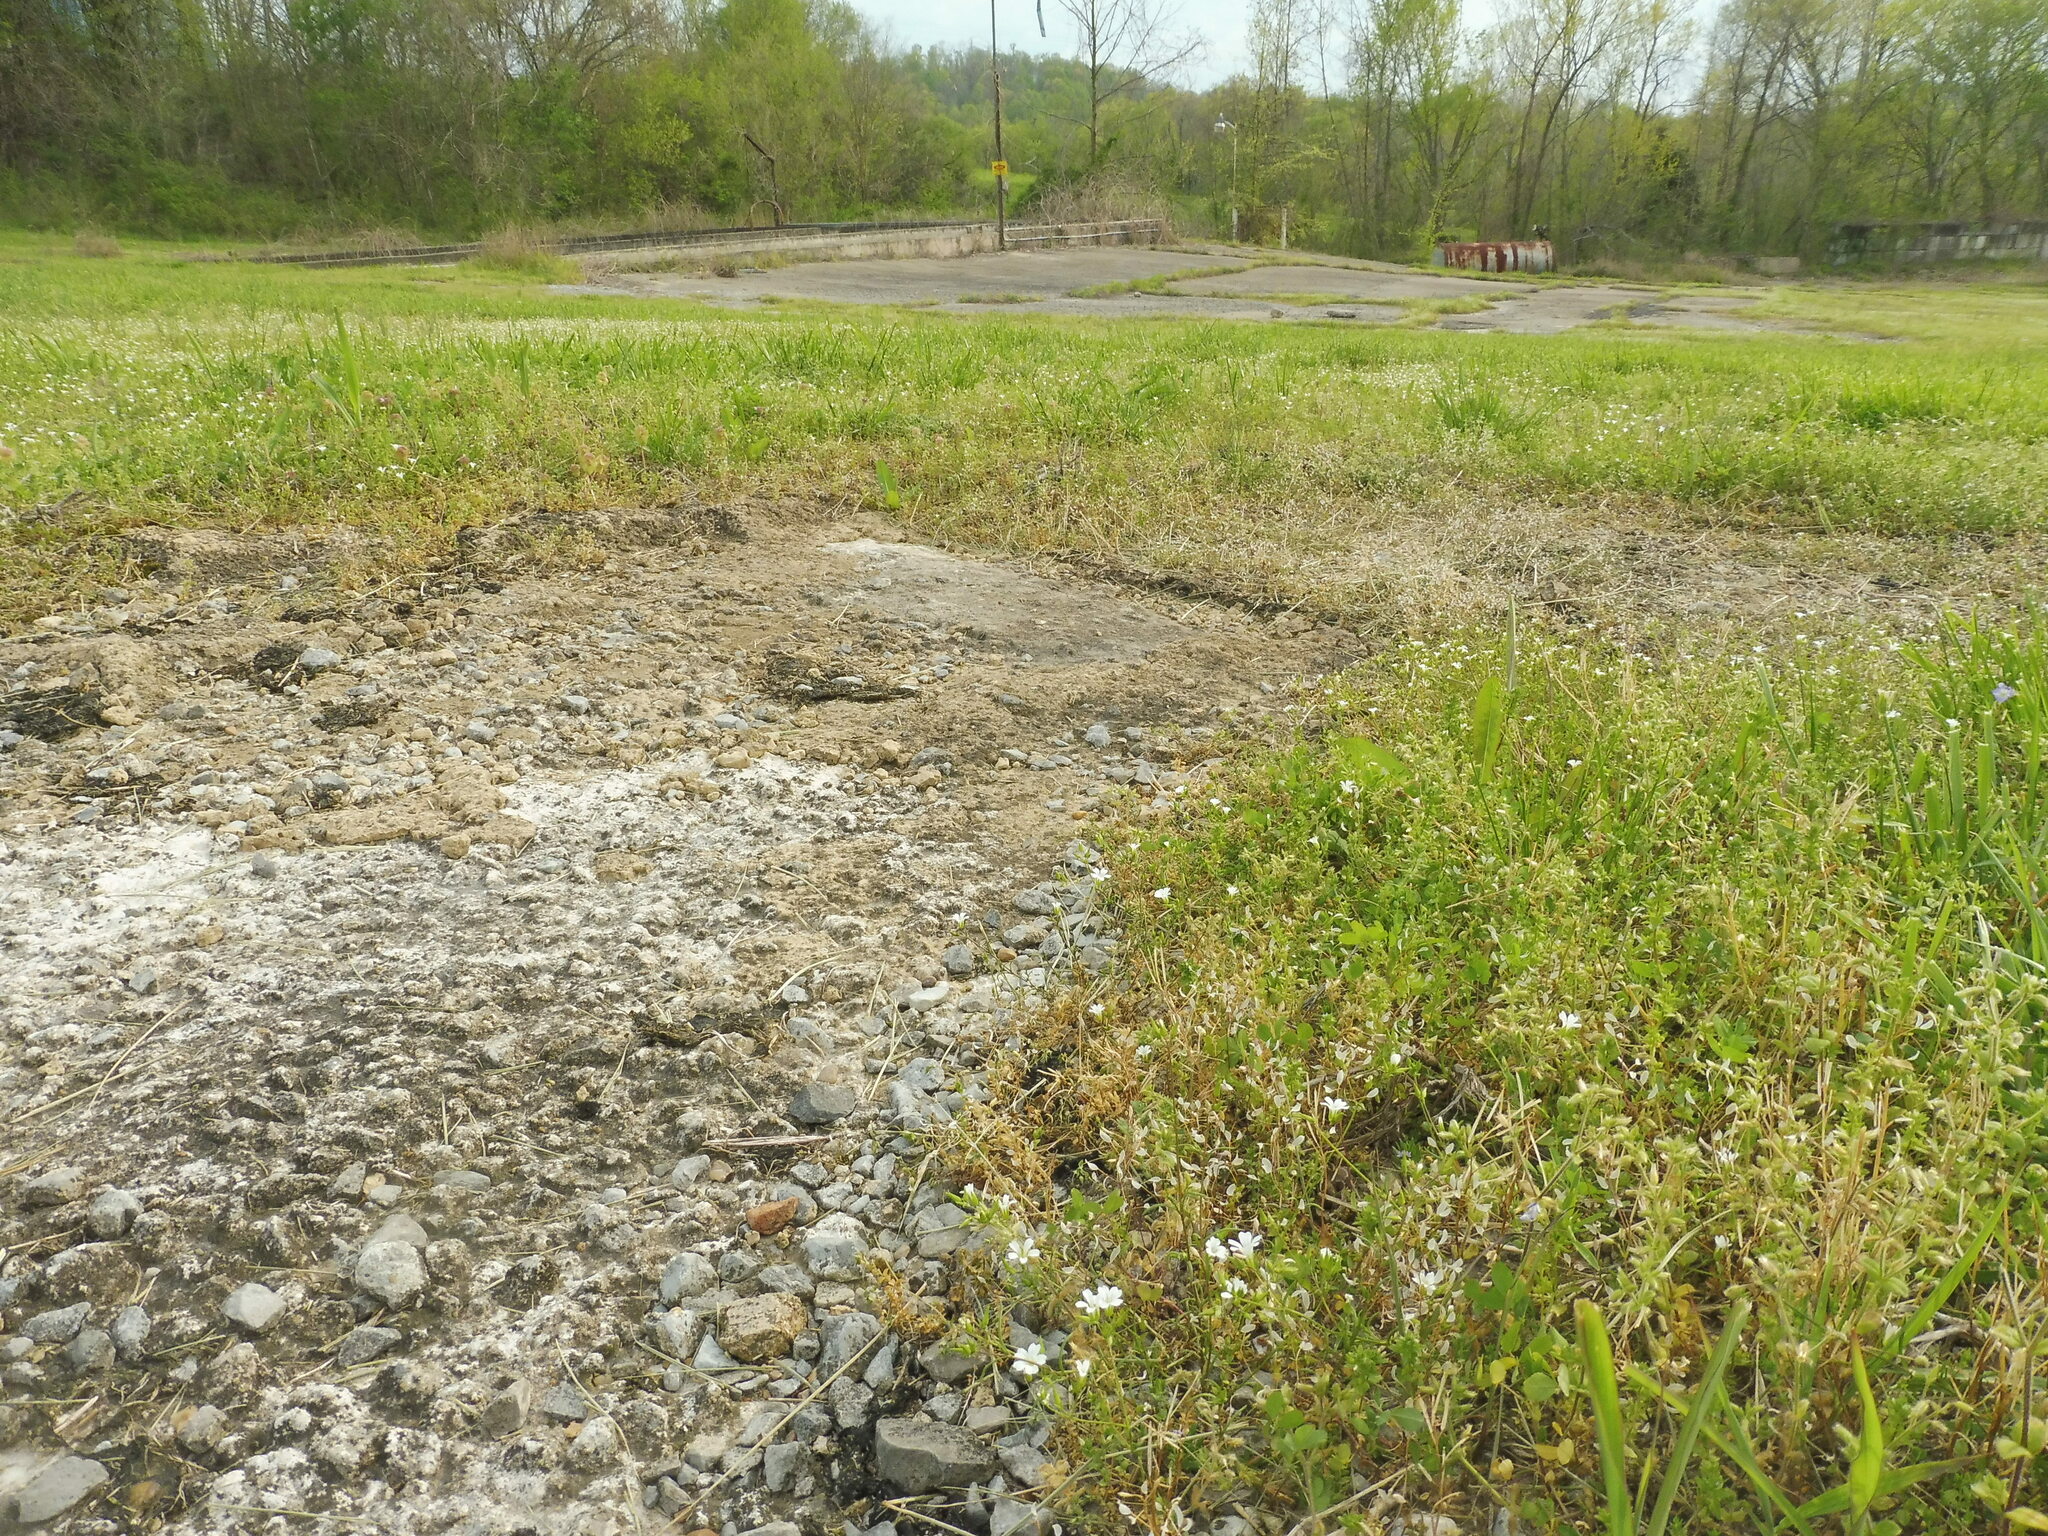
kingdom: Plantae
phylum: Tracheophyta
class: Magnoliopsida
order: Caryophyllales
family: Caryophyllaceae
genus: Mononeuria
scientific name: Mononeuria patula
